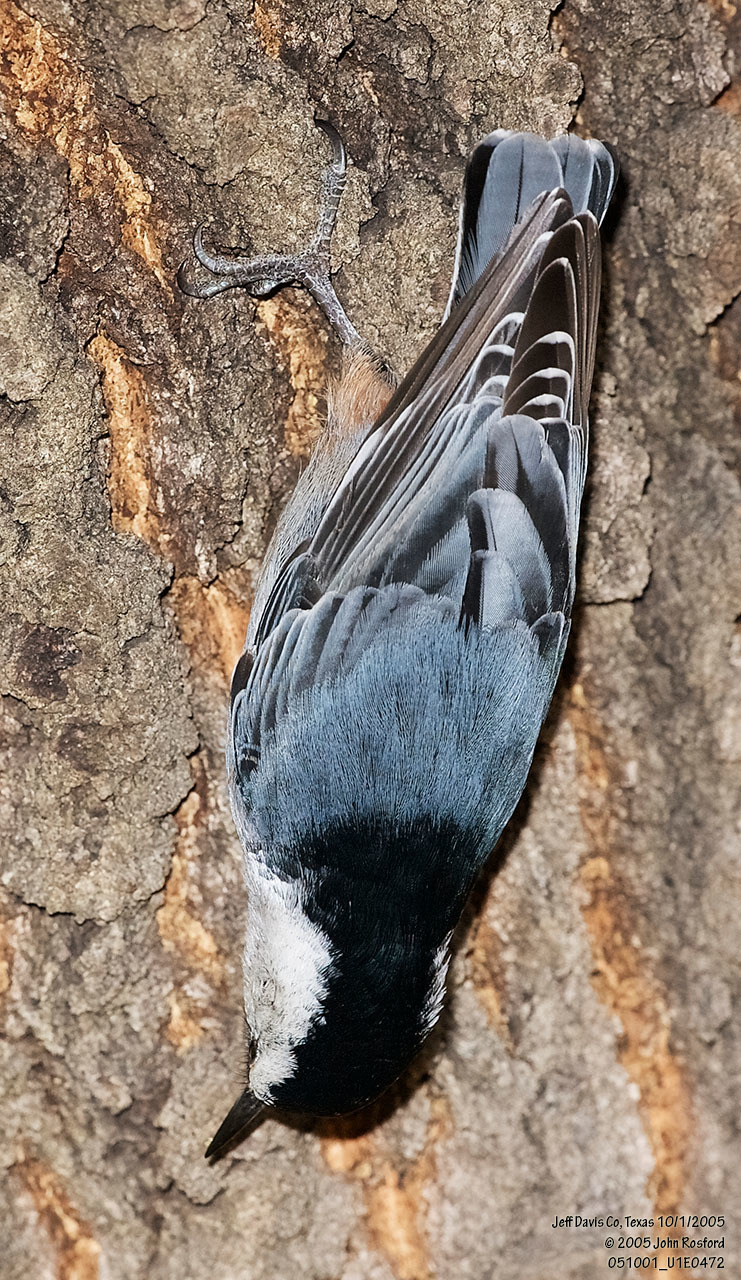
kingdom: Animalia
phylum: Chordata
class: Aves
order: Passeriformes
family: Sittidae
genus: Sitta
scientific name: Sitta carolinensis
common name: White-breasted nuthatch
